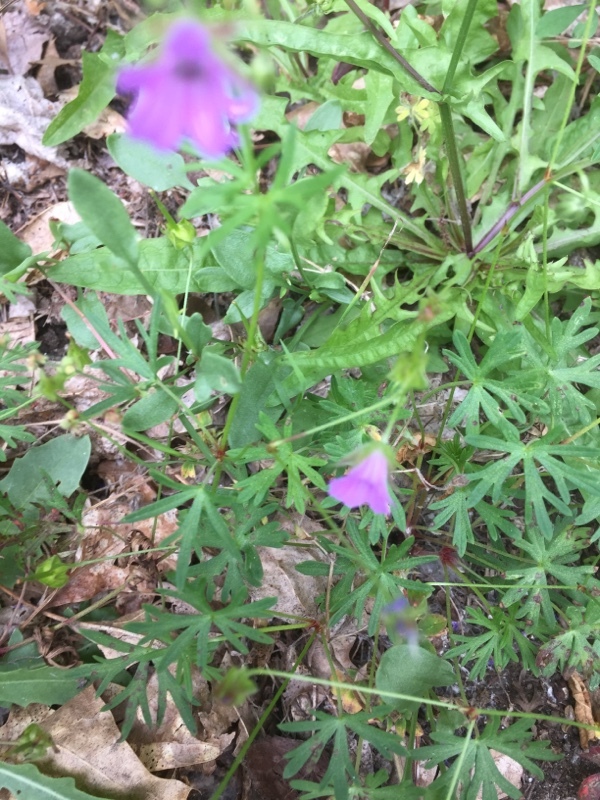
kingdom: Plantae
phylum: Tracheophyta
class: Magnoliopsida
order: Geraniales
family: Geraniaceae
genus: Geranium
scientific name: Geranium dissectum
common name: Cut-leaved crane's-bill
